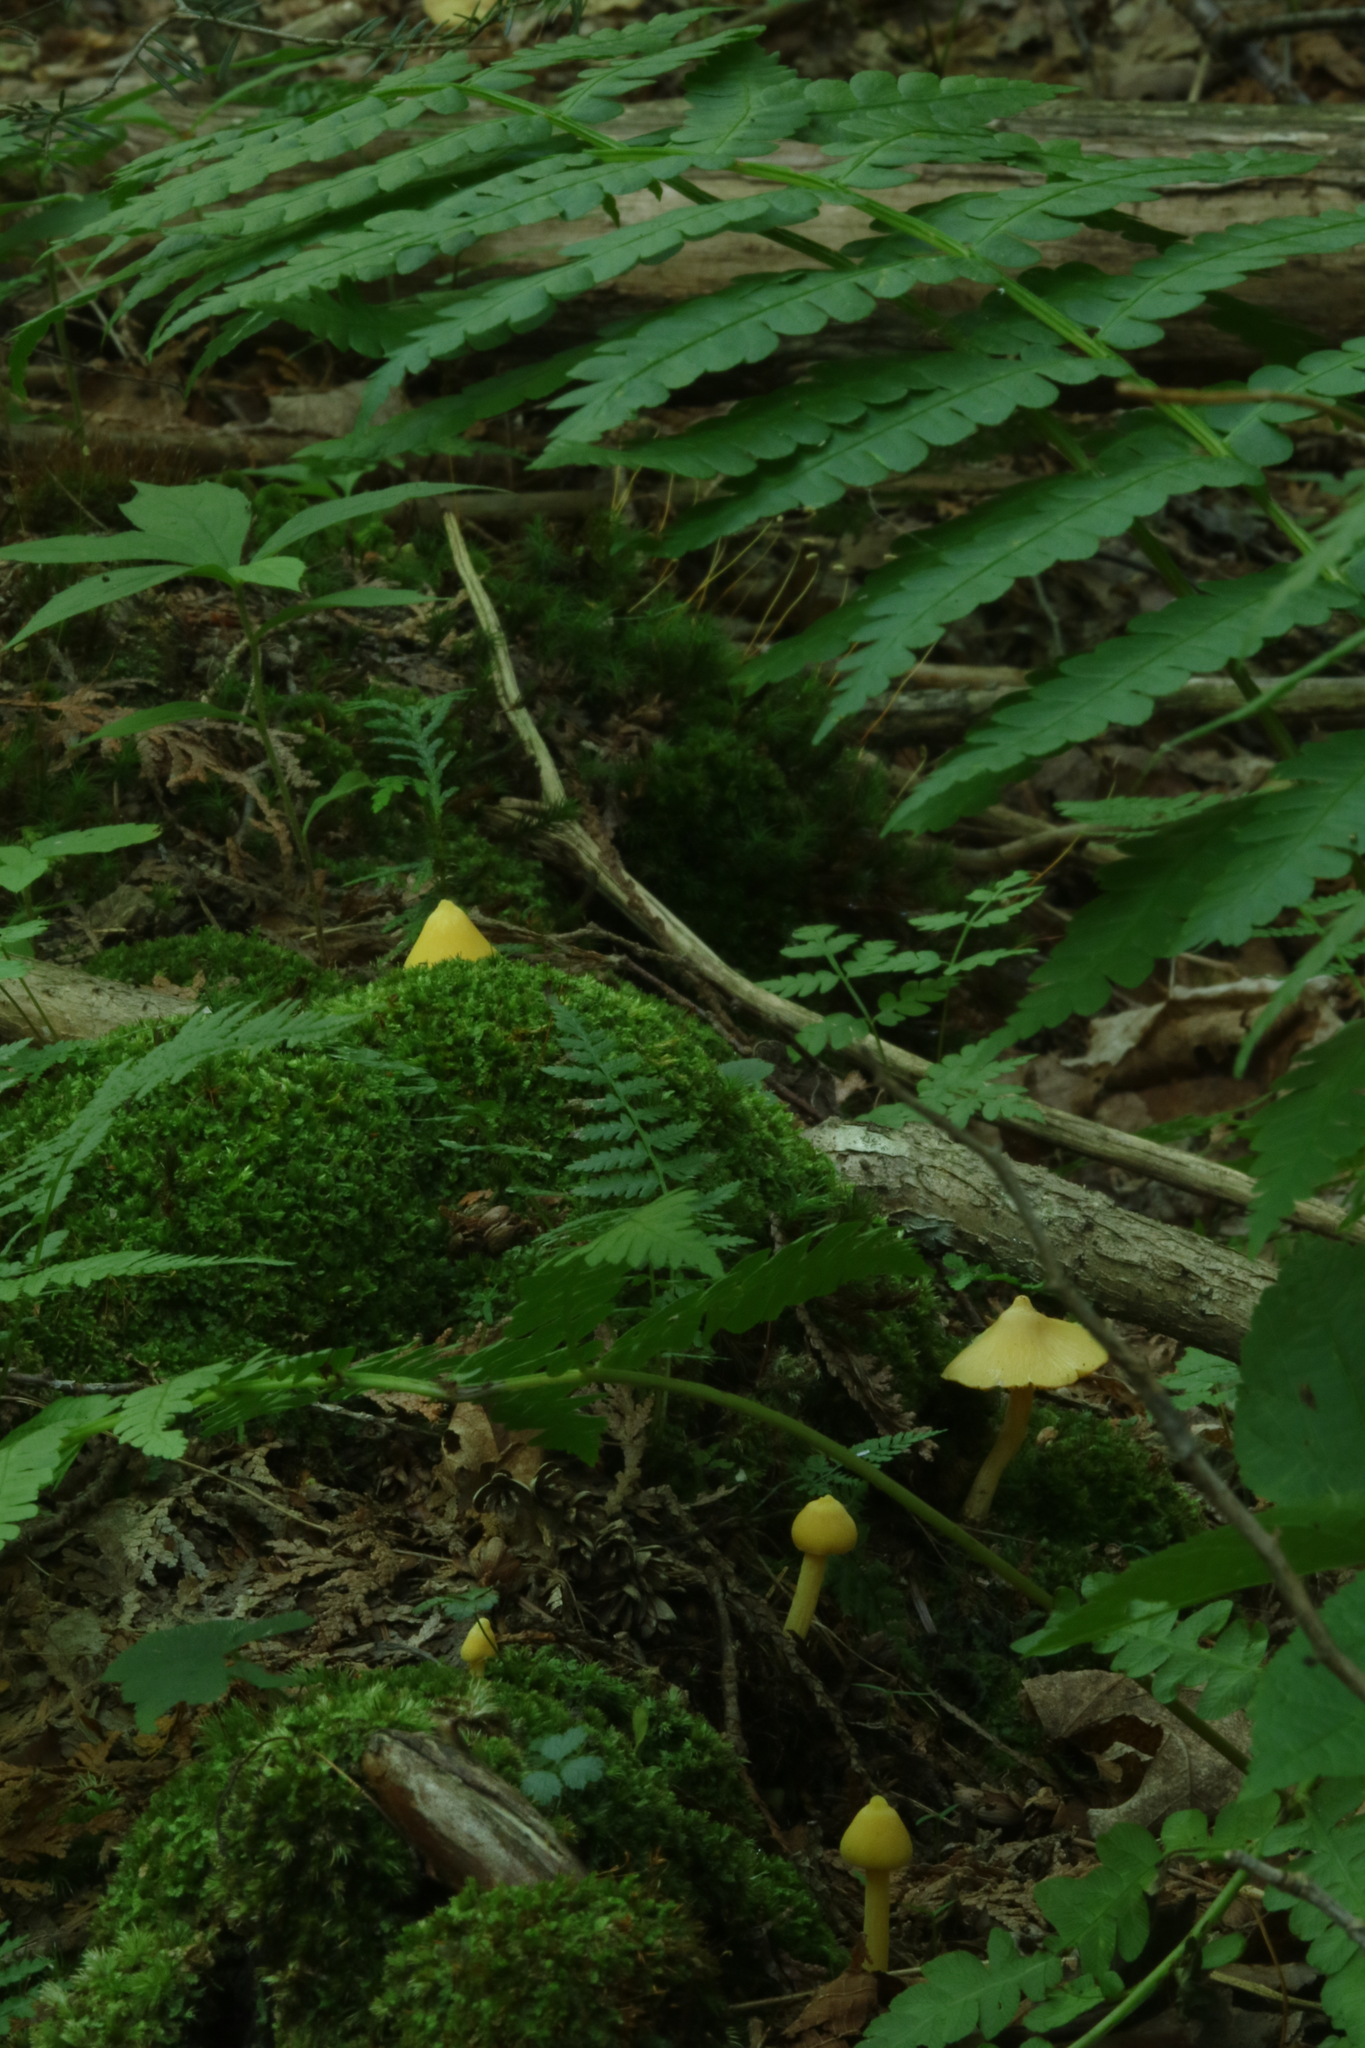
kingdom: Fungi
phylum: Basidiomycota
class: Agaricomycetes
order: Agaricales
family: Entolomataceae
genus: Entoloma
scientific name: Entoloma murrayi
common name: Yellow unicorn entoloma
